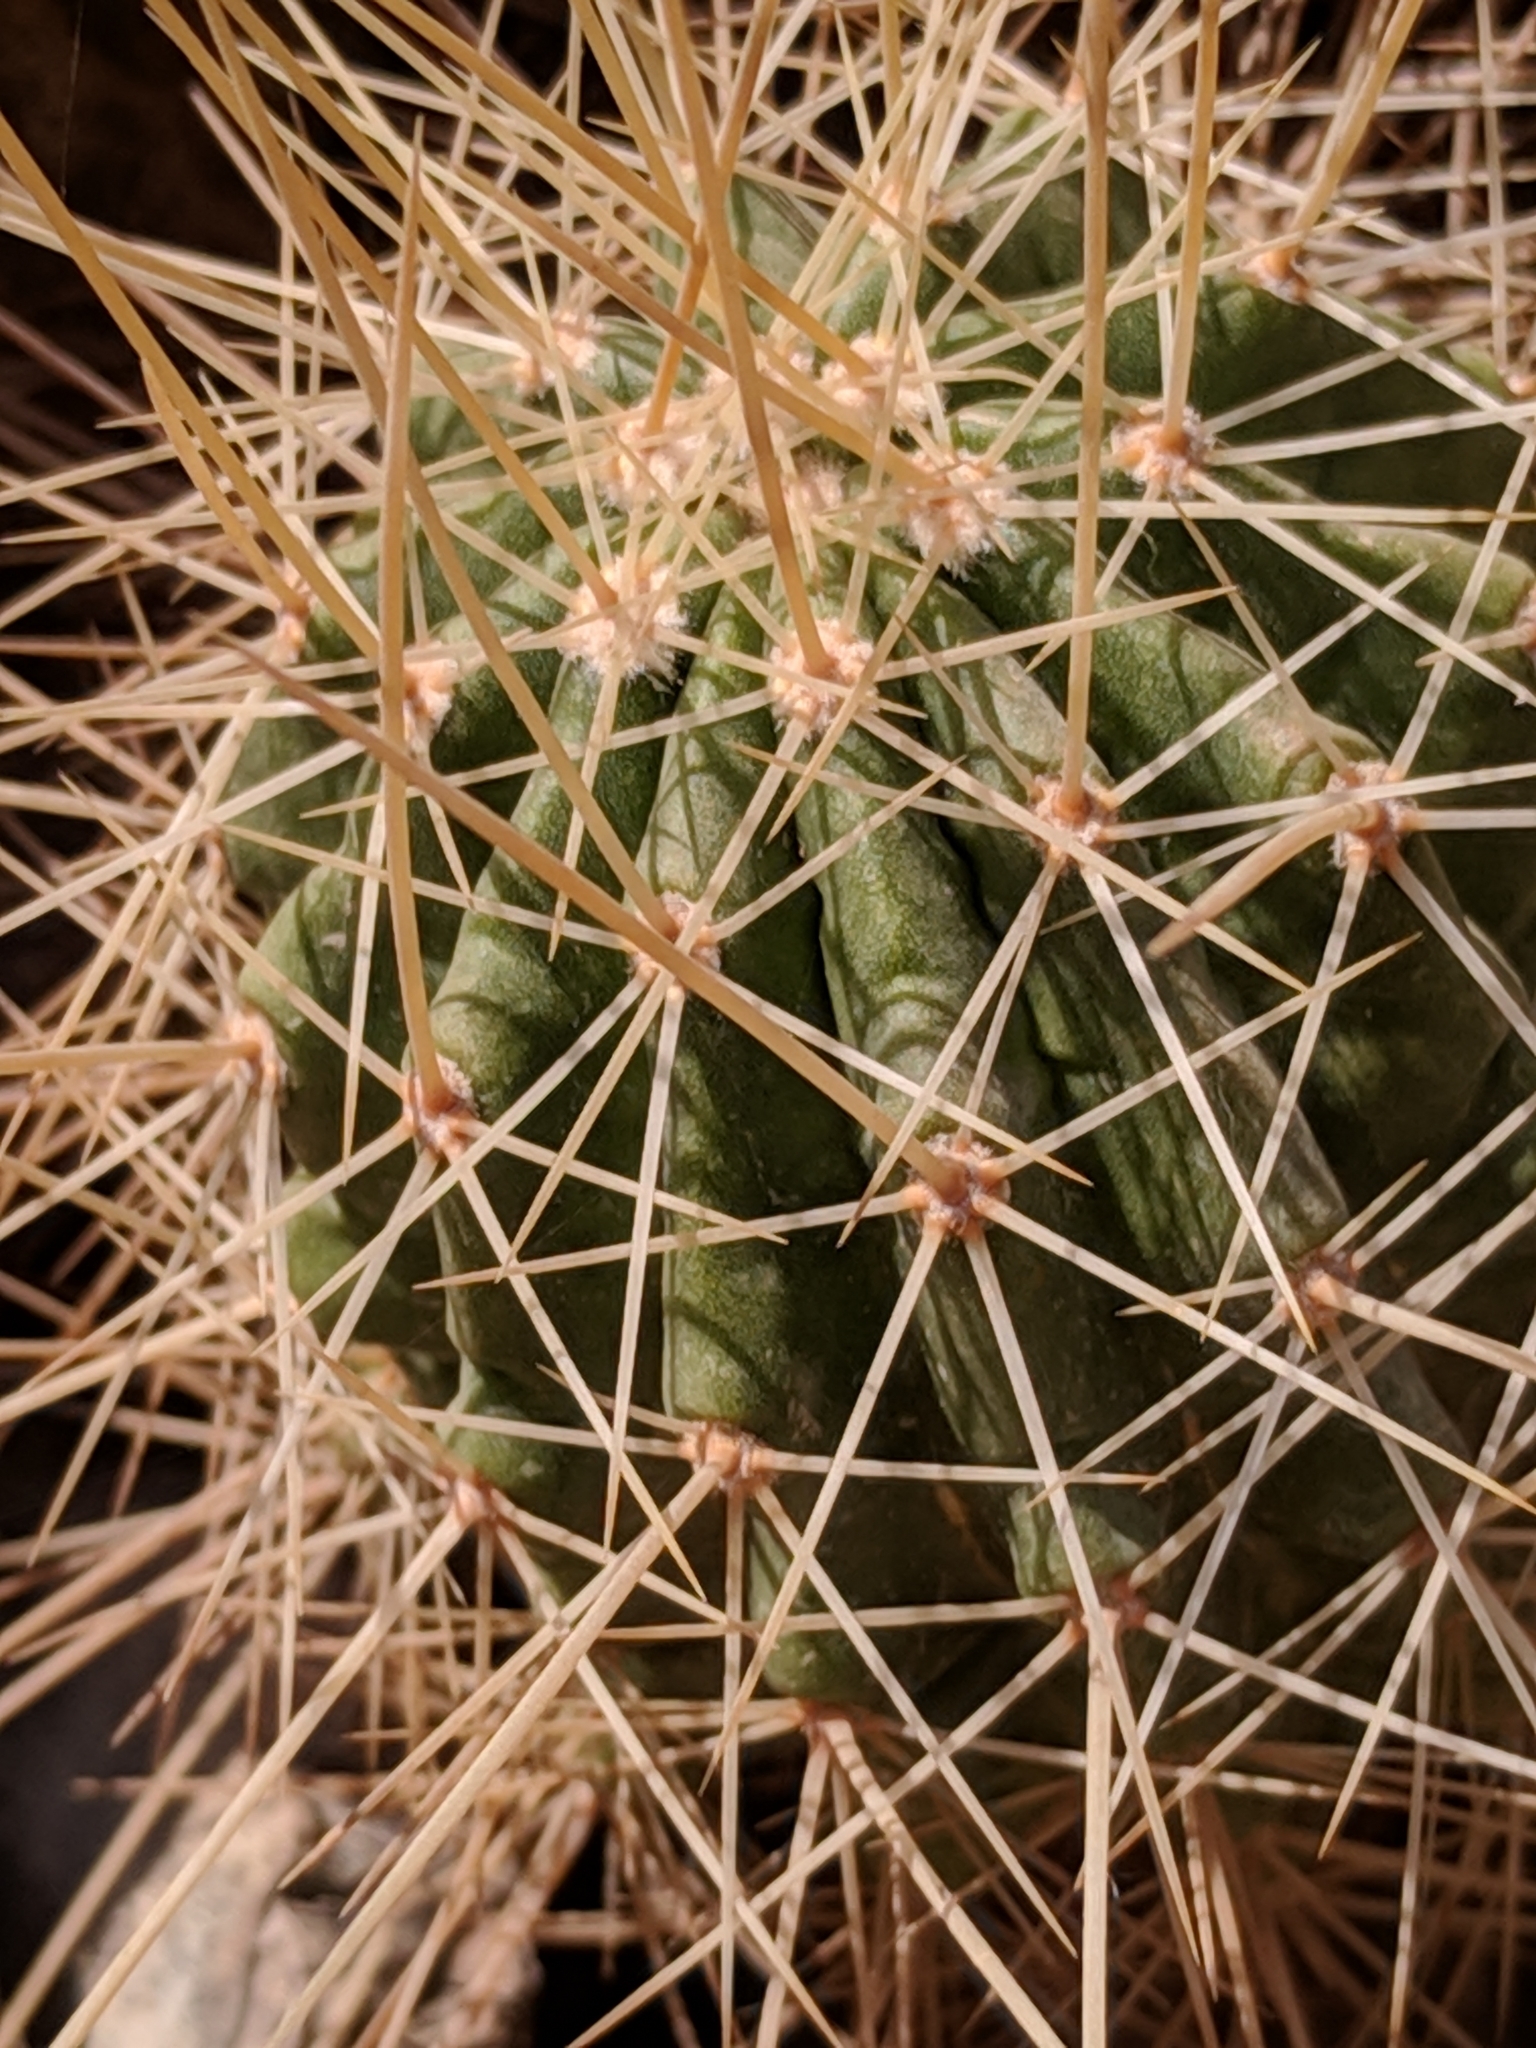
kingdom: Plantae
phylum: Tracheophyta
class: Magnoliopsida
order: Caryophyllales
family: Cactaceae
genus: Echinocereus
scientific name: Echinocereus stramineus
